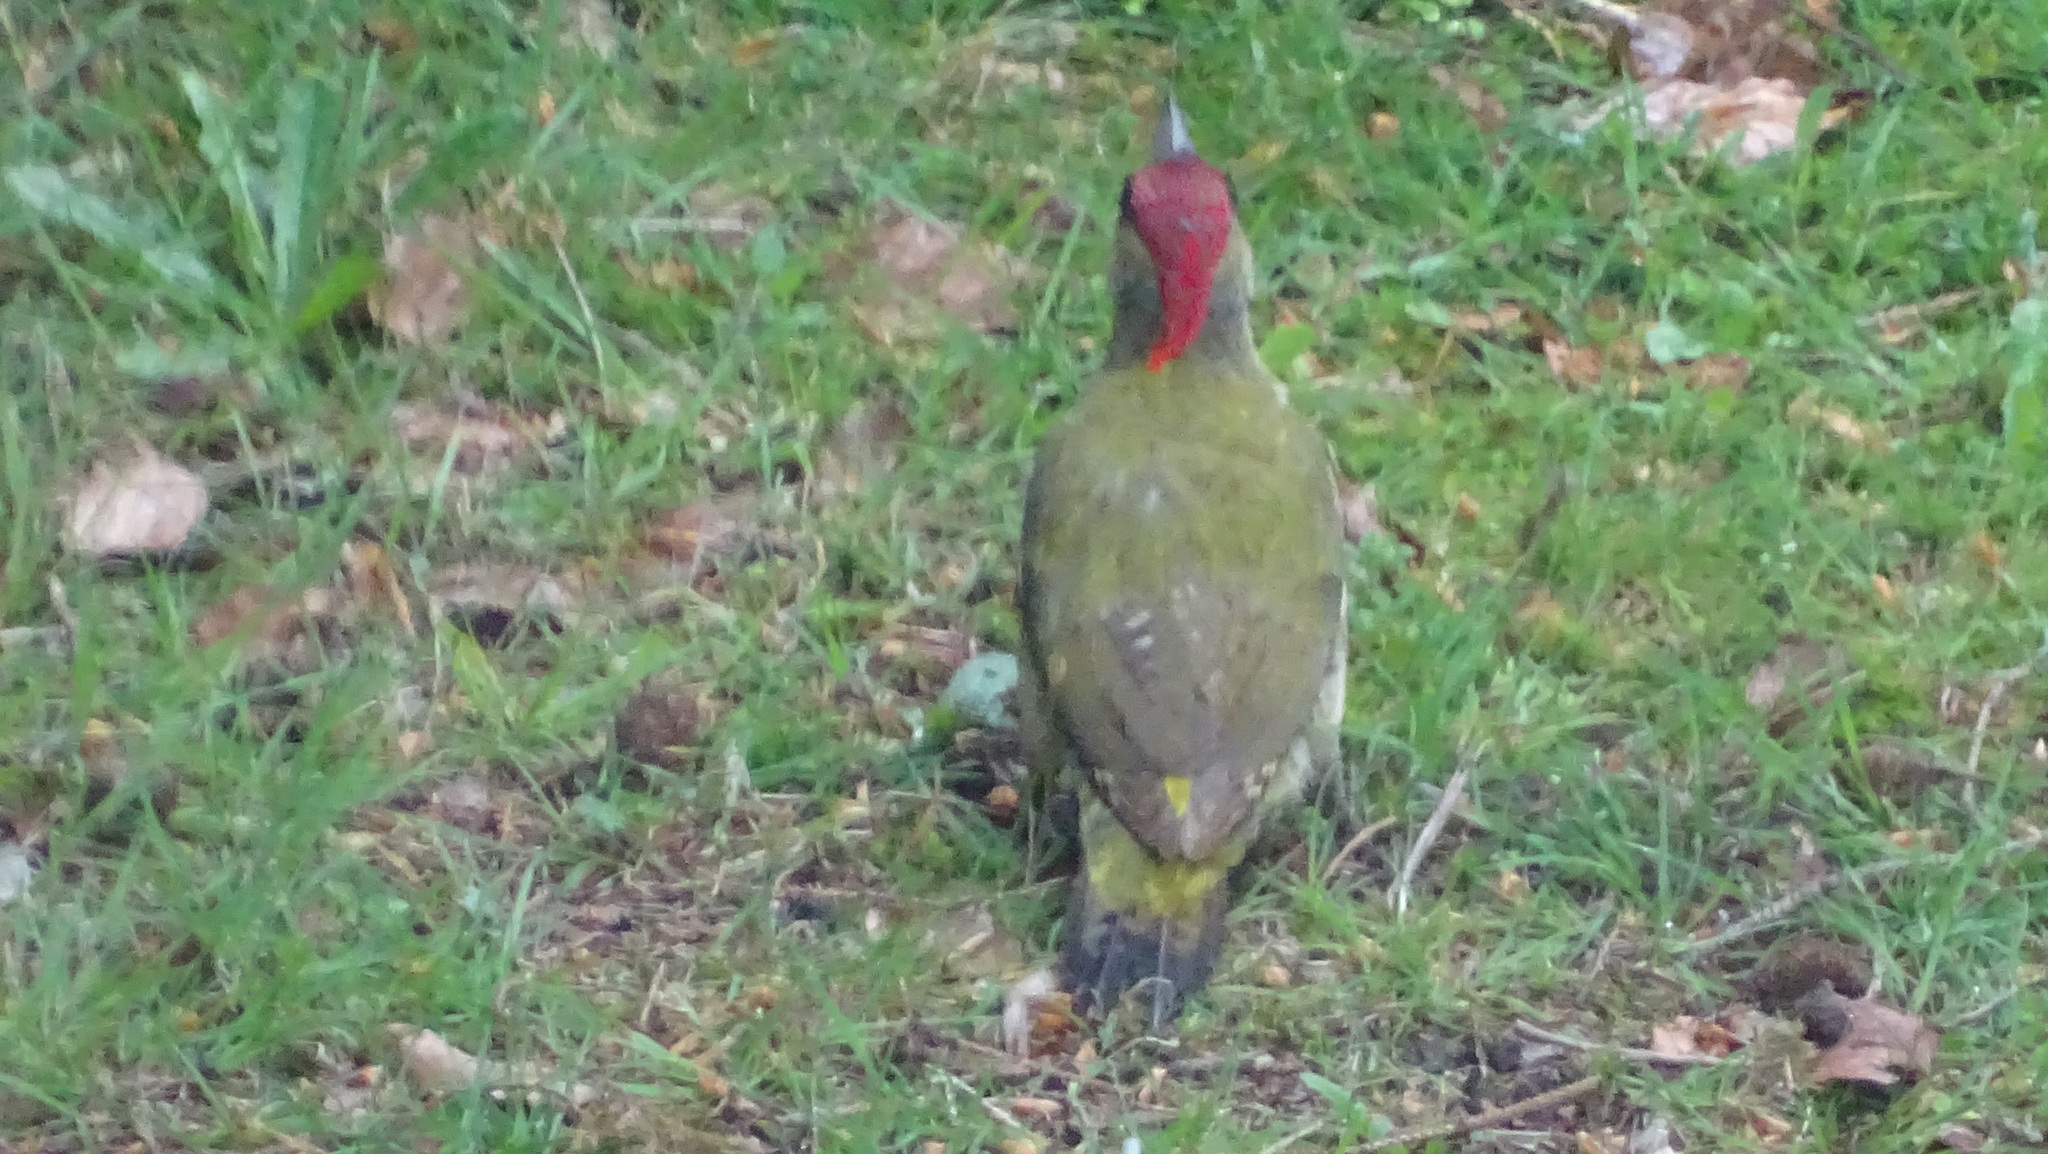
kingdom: Animalia
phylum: Chordata
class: Aves
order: Piciformes
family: Picidae
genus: Picus
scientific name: Picus viridis
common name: European green woodpecker
